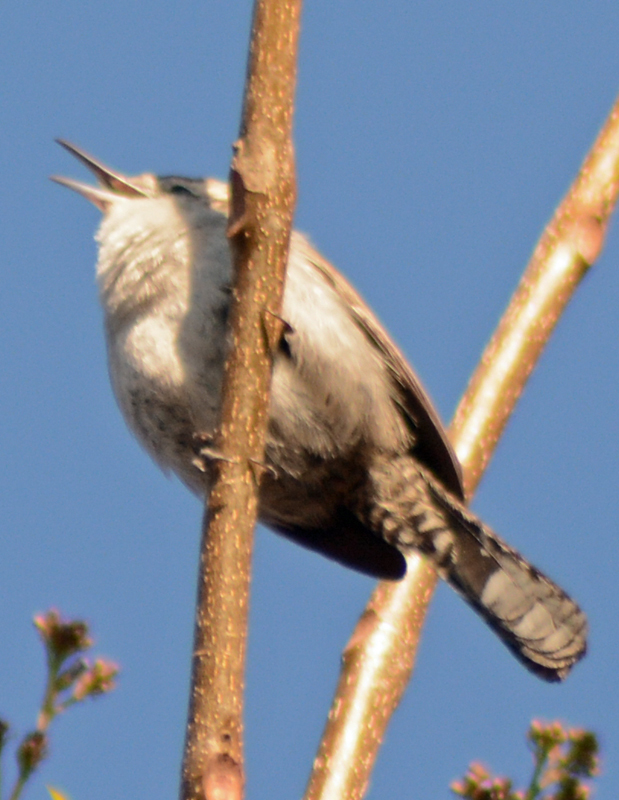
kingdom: Animalia
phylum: Chordata
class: Aves
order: Passeriformes
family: Troglodytidae
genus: Thryomanes
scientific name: Thryomanes bewickii
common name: Bewick's wren
